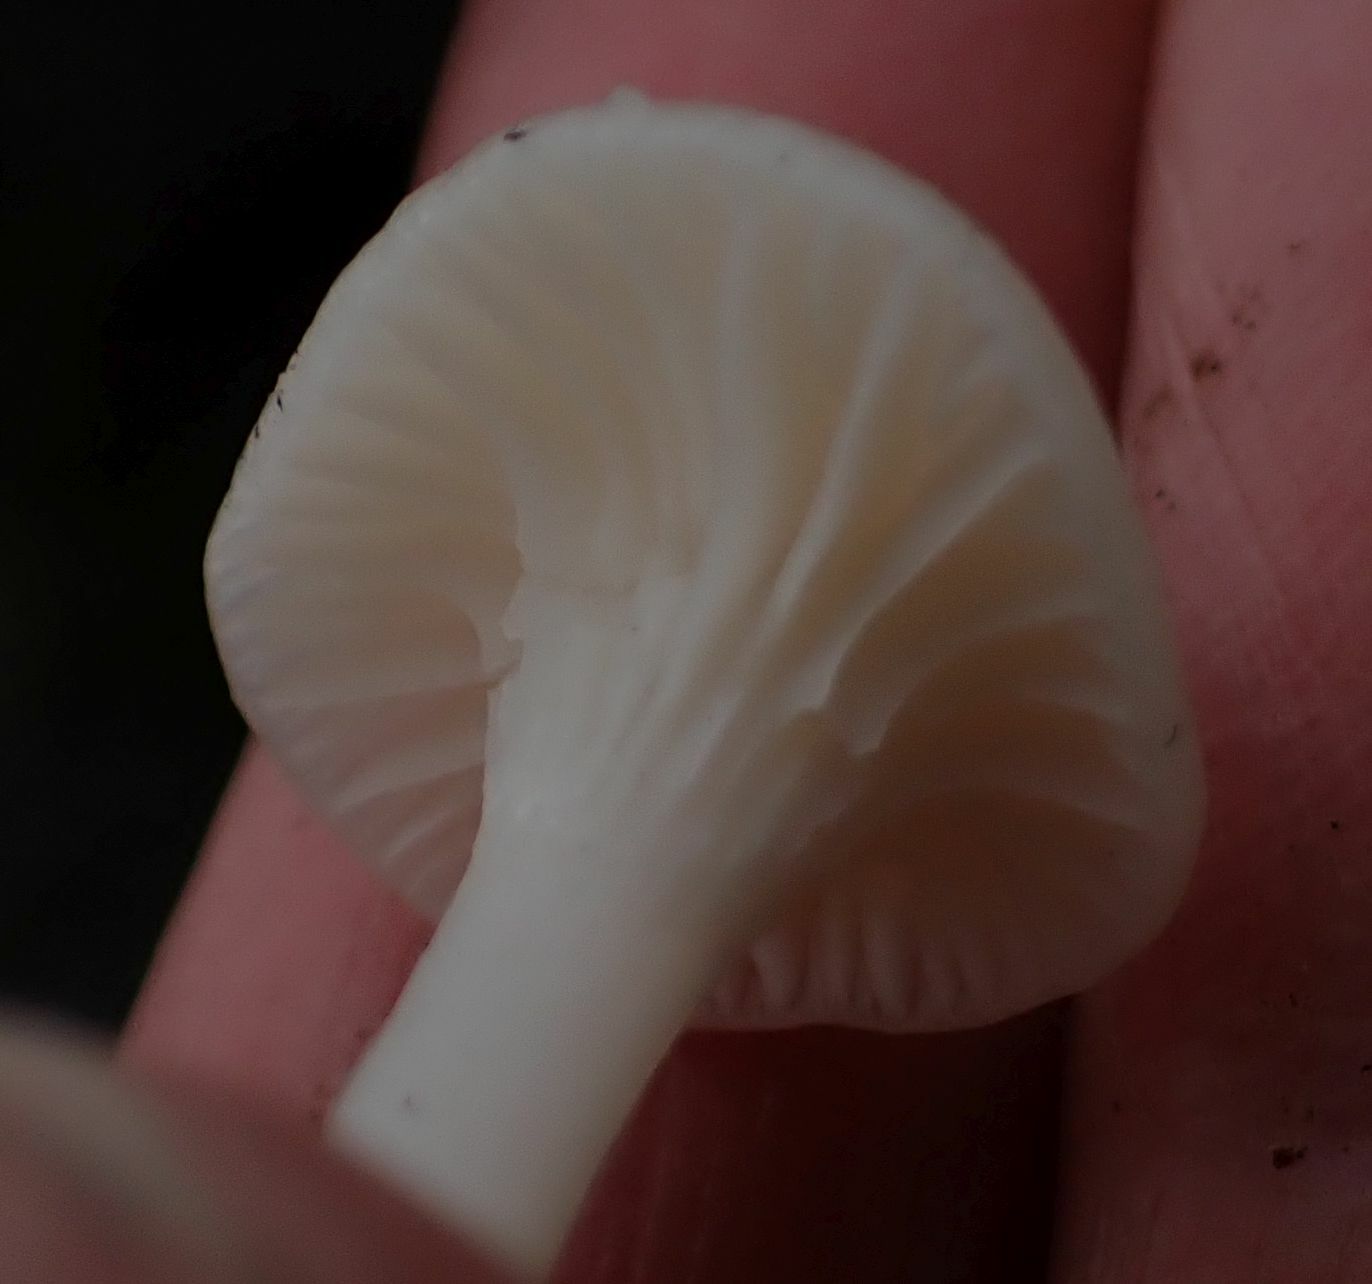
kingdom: Fungi
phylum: Basidiomycota
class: Agaricomycetes
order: Agaricales
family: Hygrophoraceae
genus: Cuphophyllus
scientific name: Cuphophyllus virgineus
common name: Snowy waxcap
